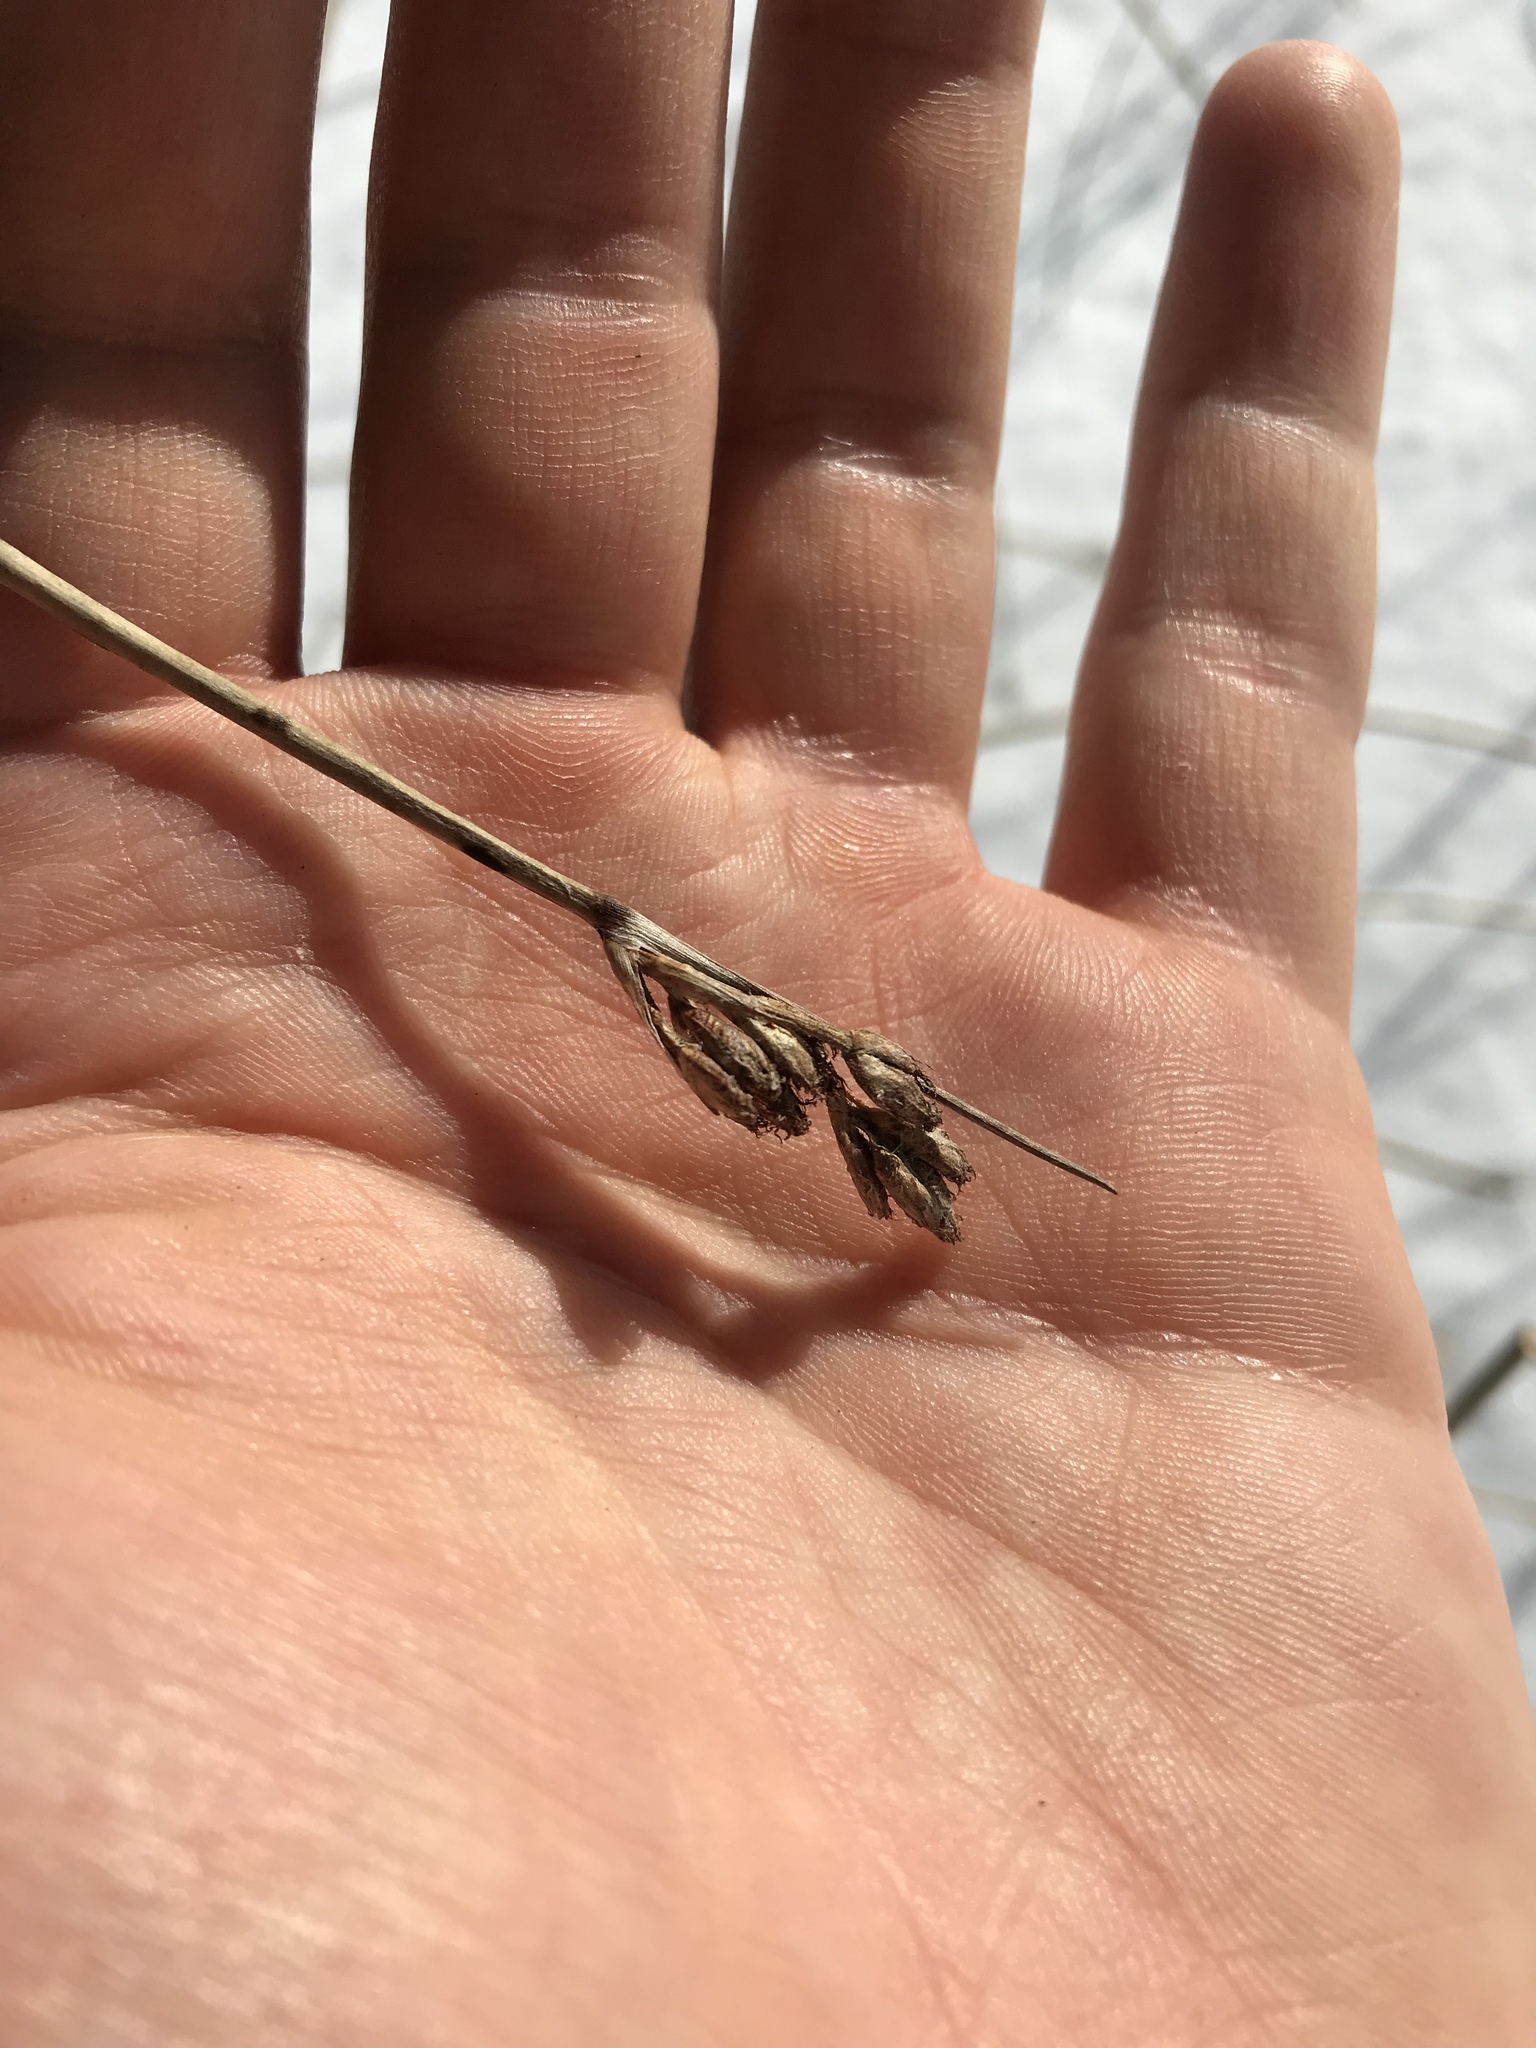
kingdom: Plantae
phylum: Tracheophyta
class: Liliopsida
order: Poales
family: Cyperaceae
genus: Schoenoplectus
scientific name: Schoenoplectus acutus
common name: Hardstem bulrush
